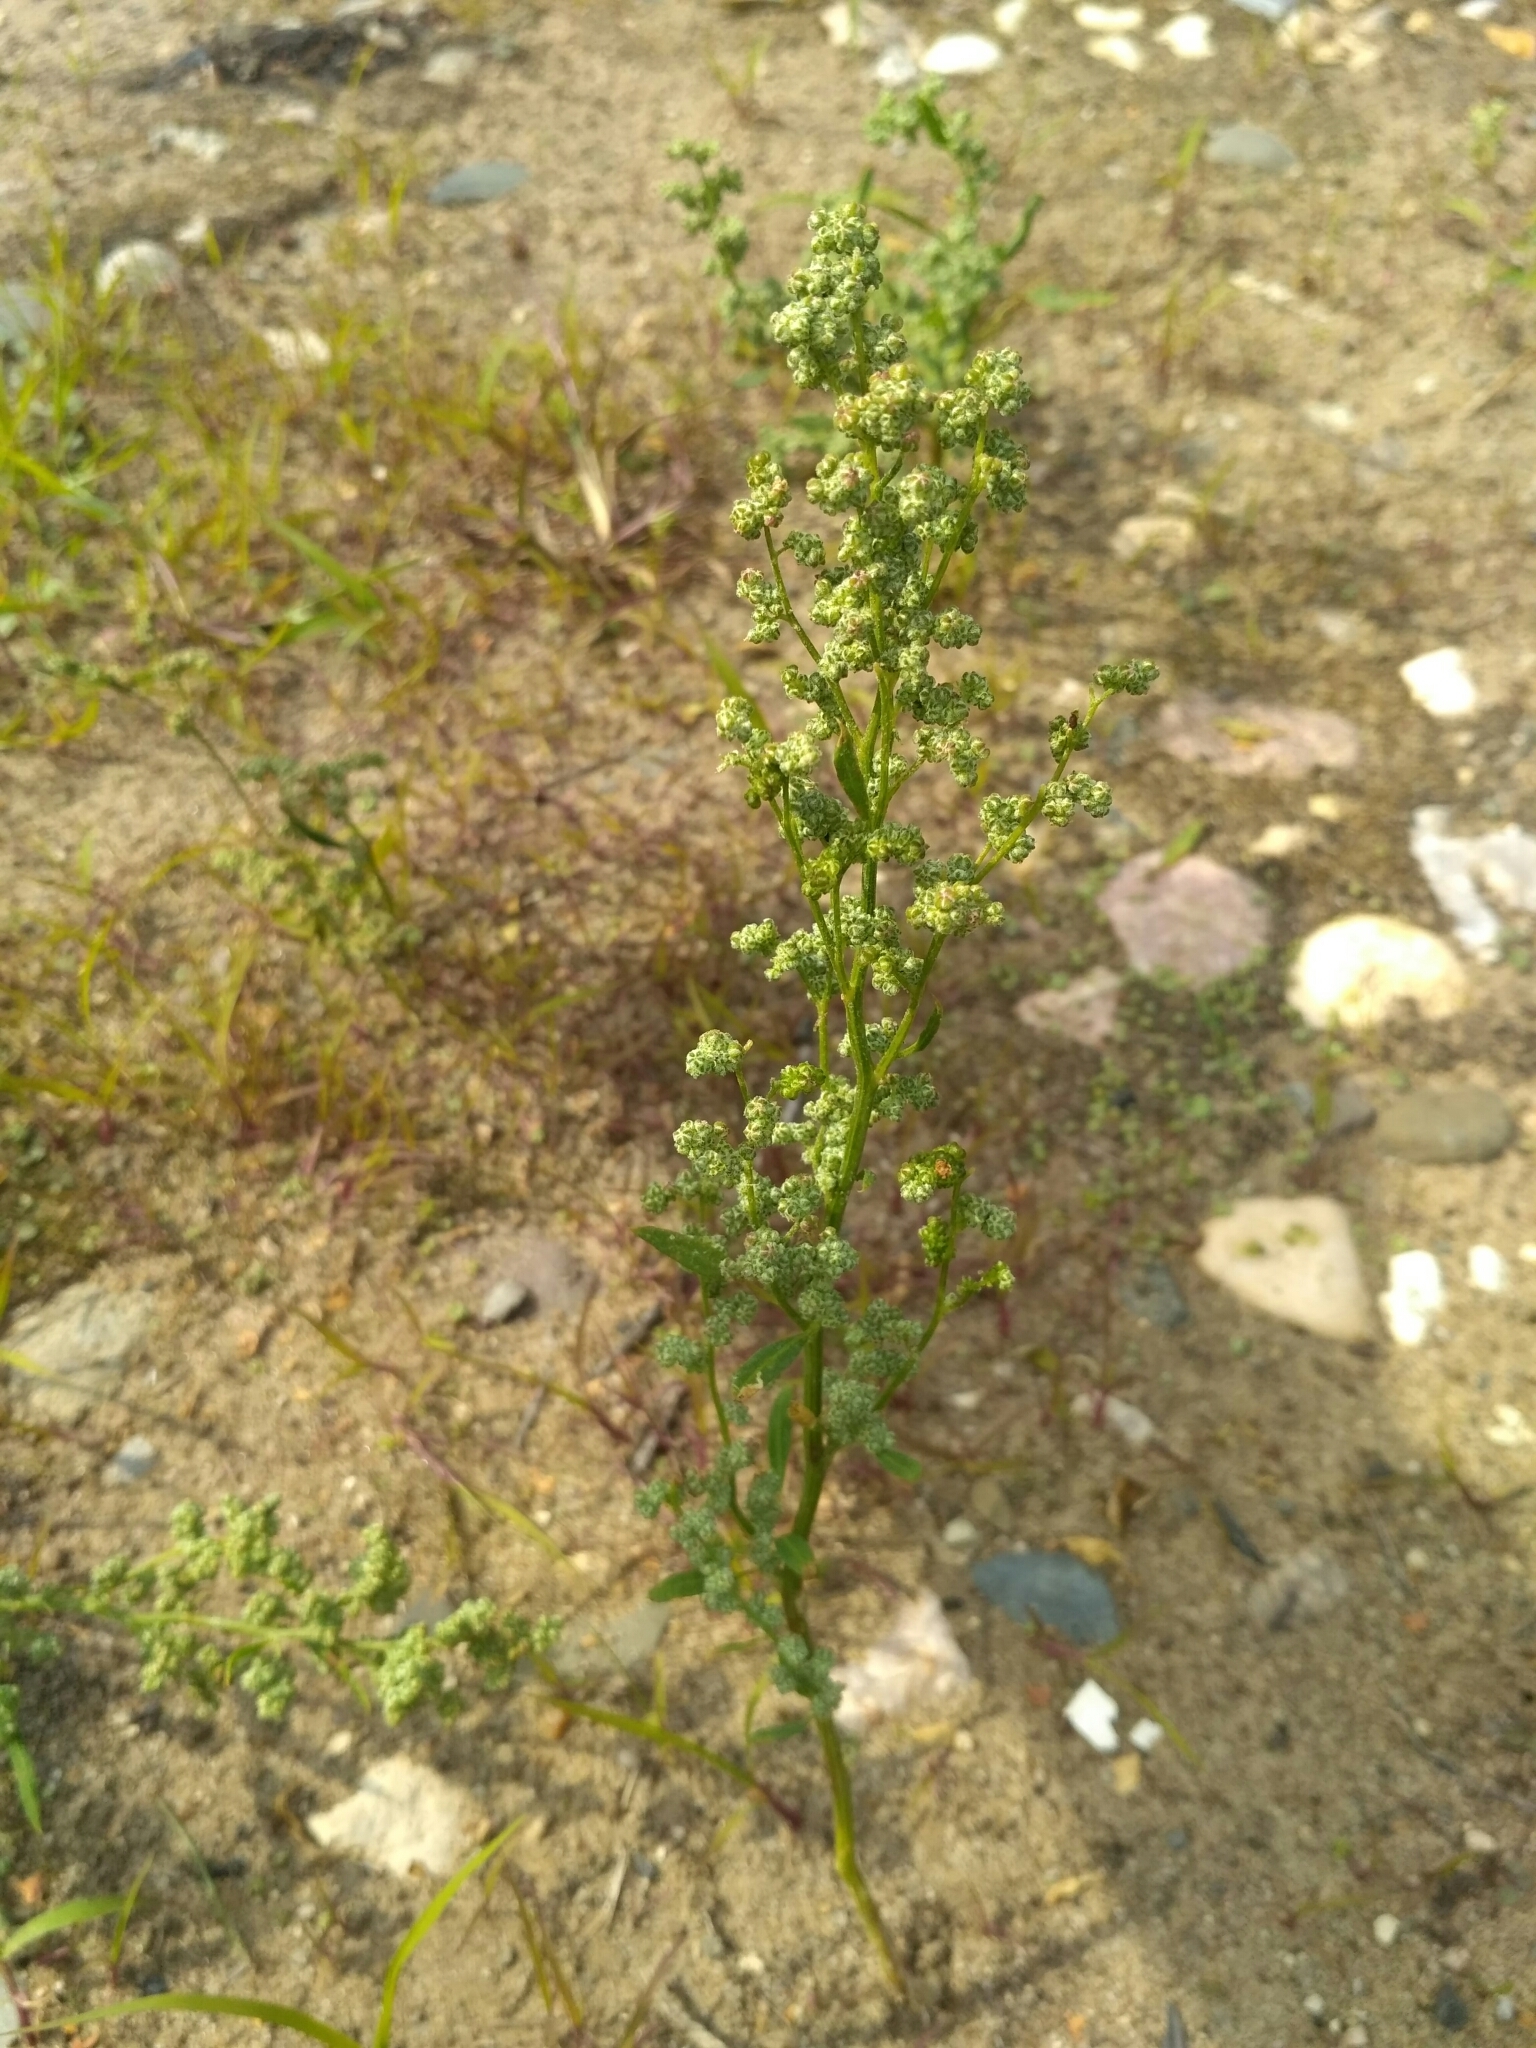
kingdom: Plantae
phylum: Tracheophyta
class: Magnoliopsida
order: Caryophyllales
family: Amaranthaceae
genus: Chenopodium
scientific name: Chenopodium album
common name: Fat-hen
